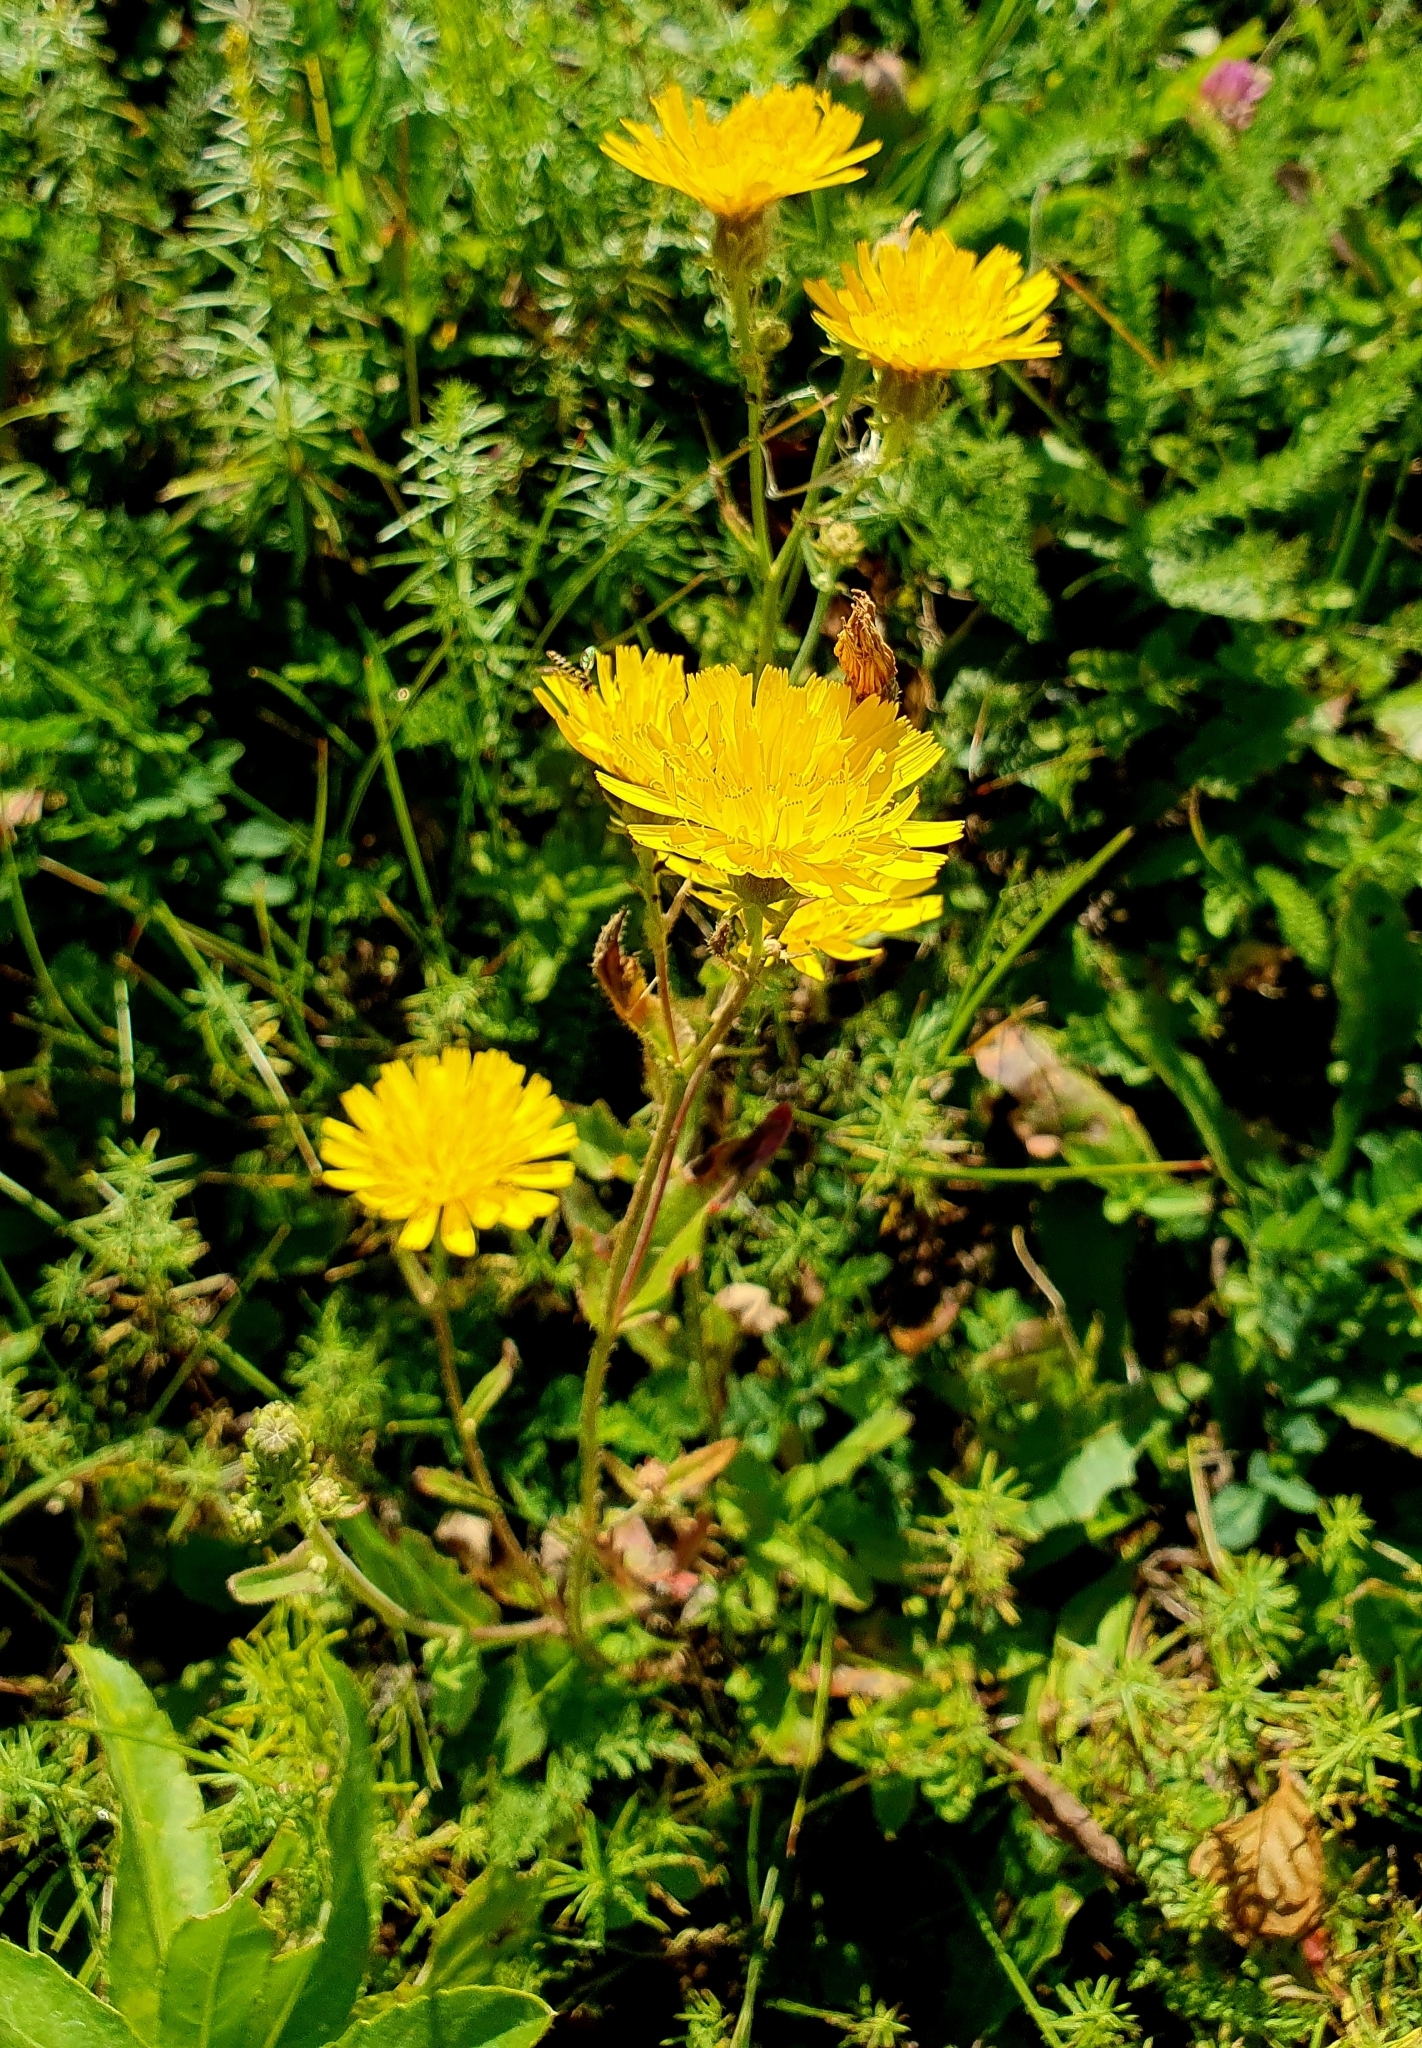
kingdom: Plantae
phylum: Tracheophyta
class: Magnoliopsida
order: Asterales
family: Asteraceae
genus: Picris
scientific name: Picris hieracioides
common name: Hawkweed oxtongue
